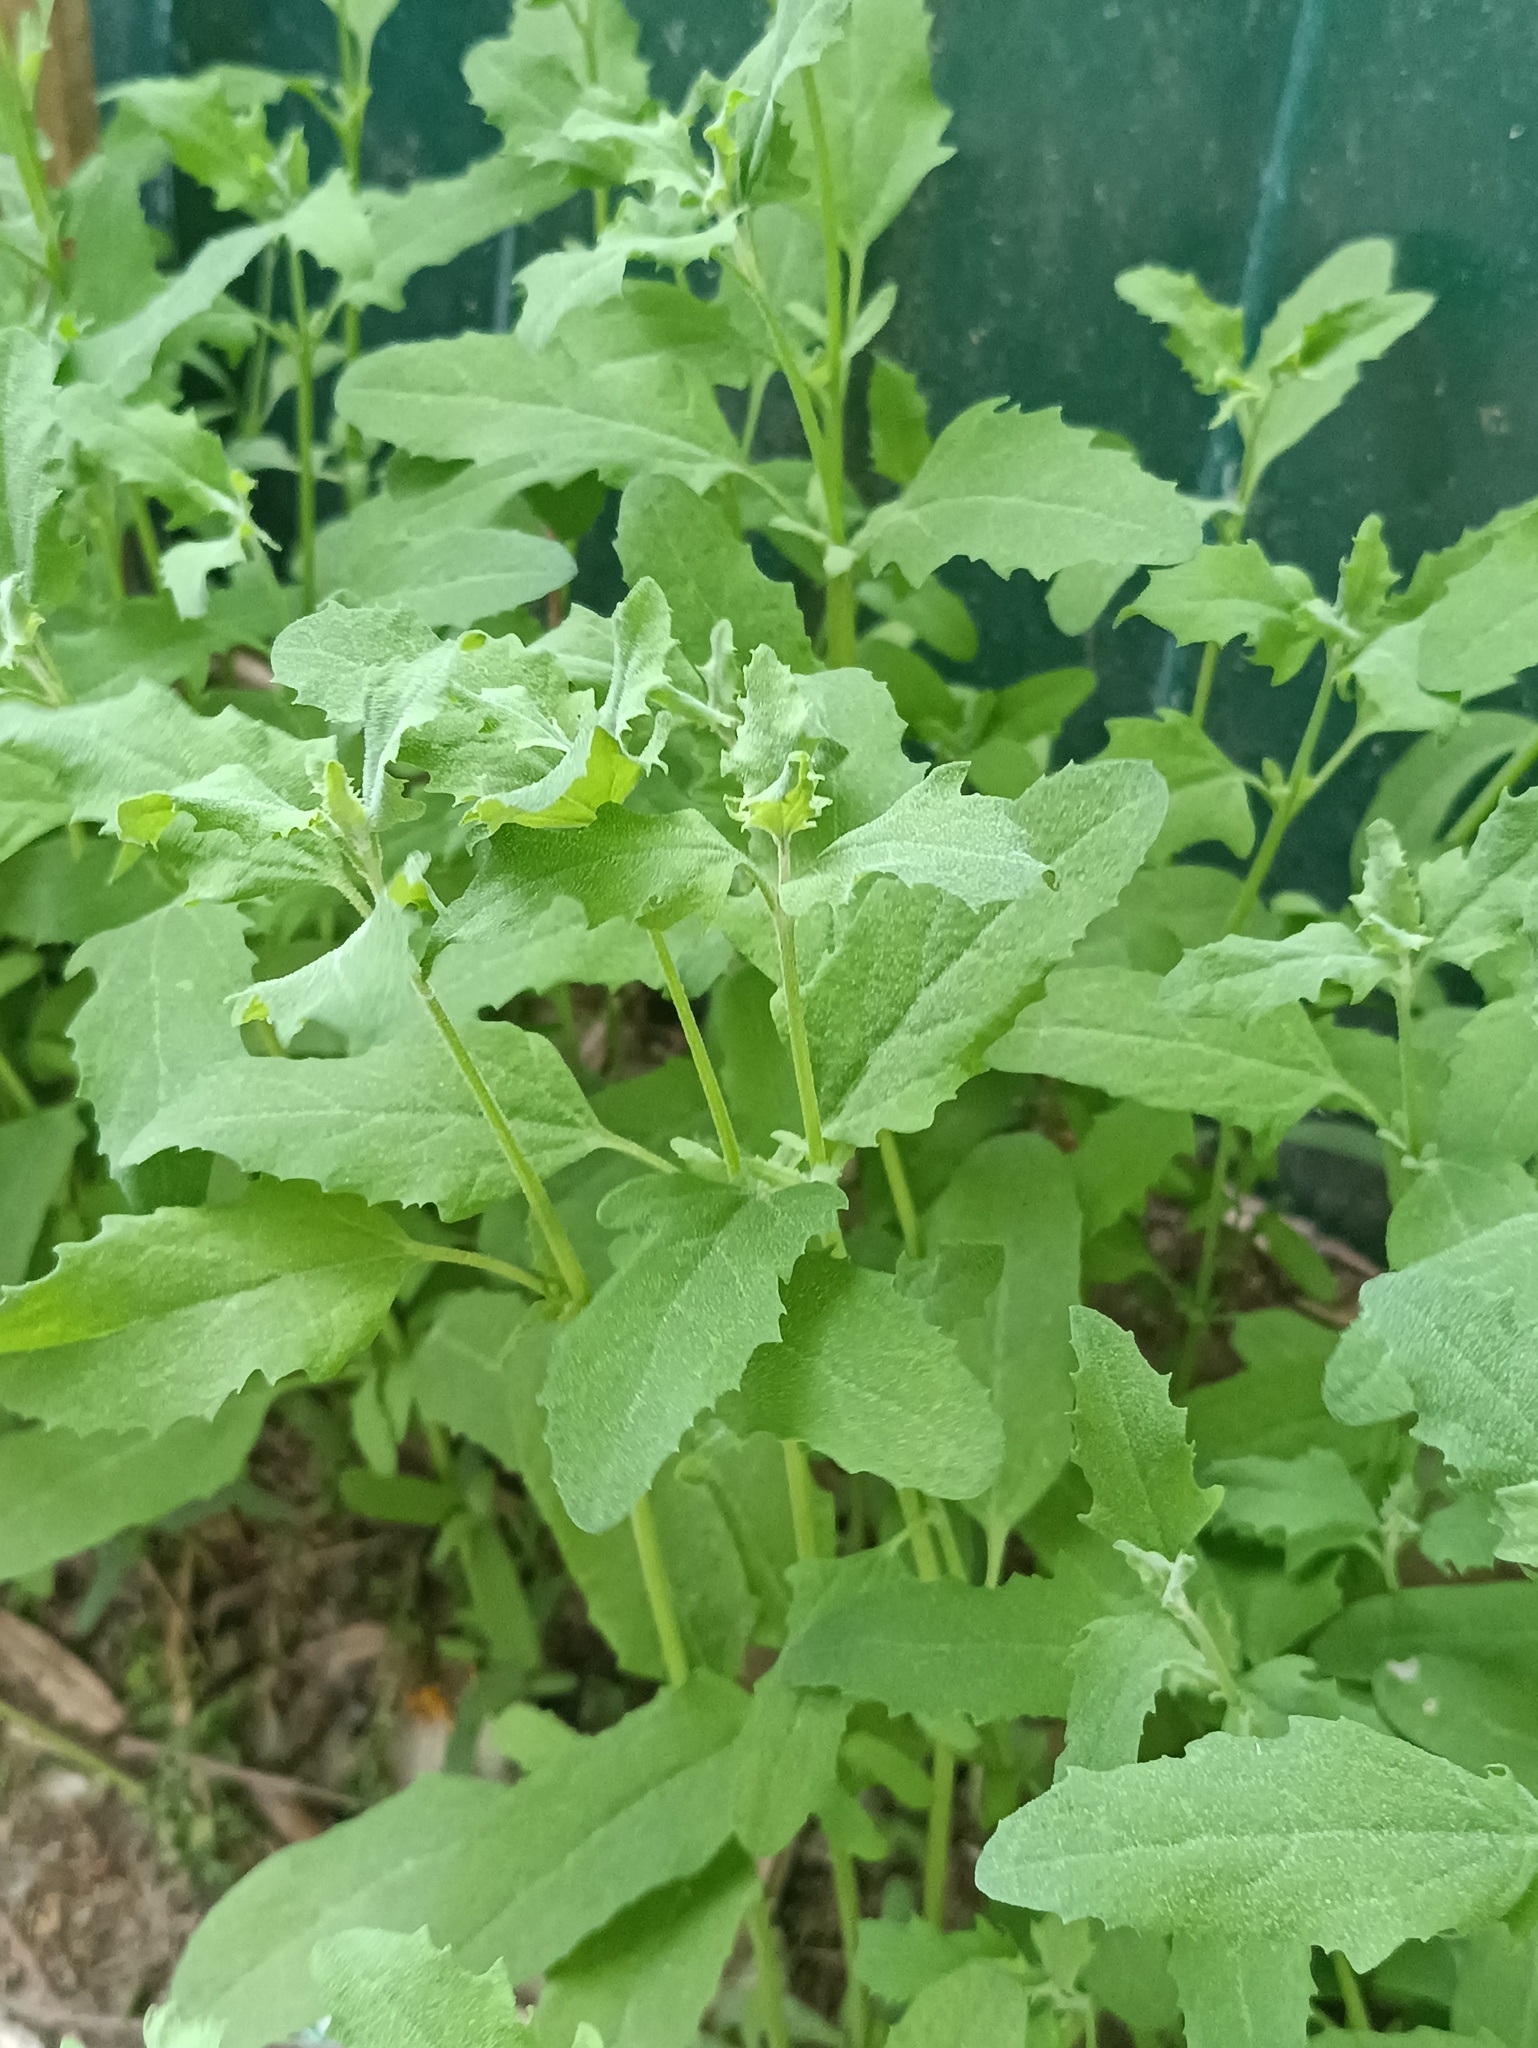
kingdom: Plantae
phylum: Tracheophyta
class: Magnoliopsida
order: Caryophyllales
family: Amaranthaceae
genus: Atriplex
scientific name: Atriplex patula
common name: Common orache
